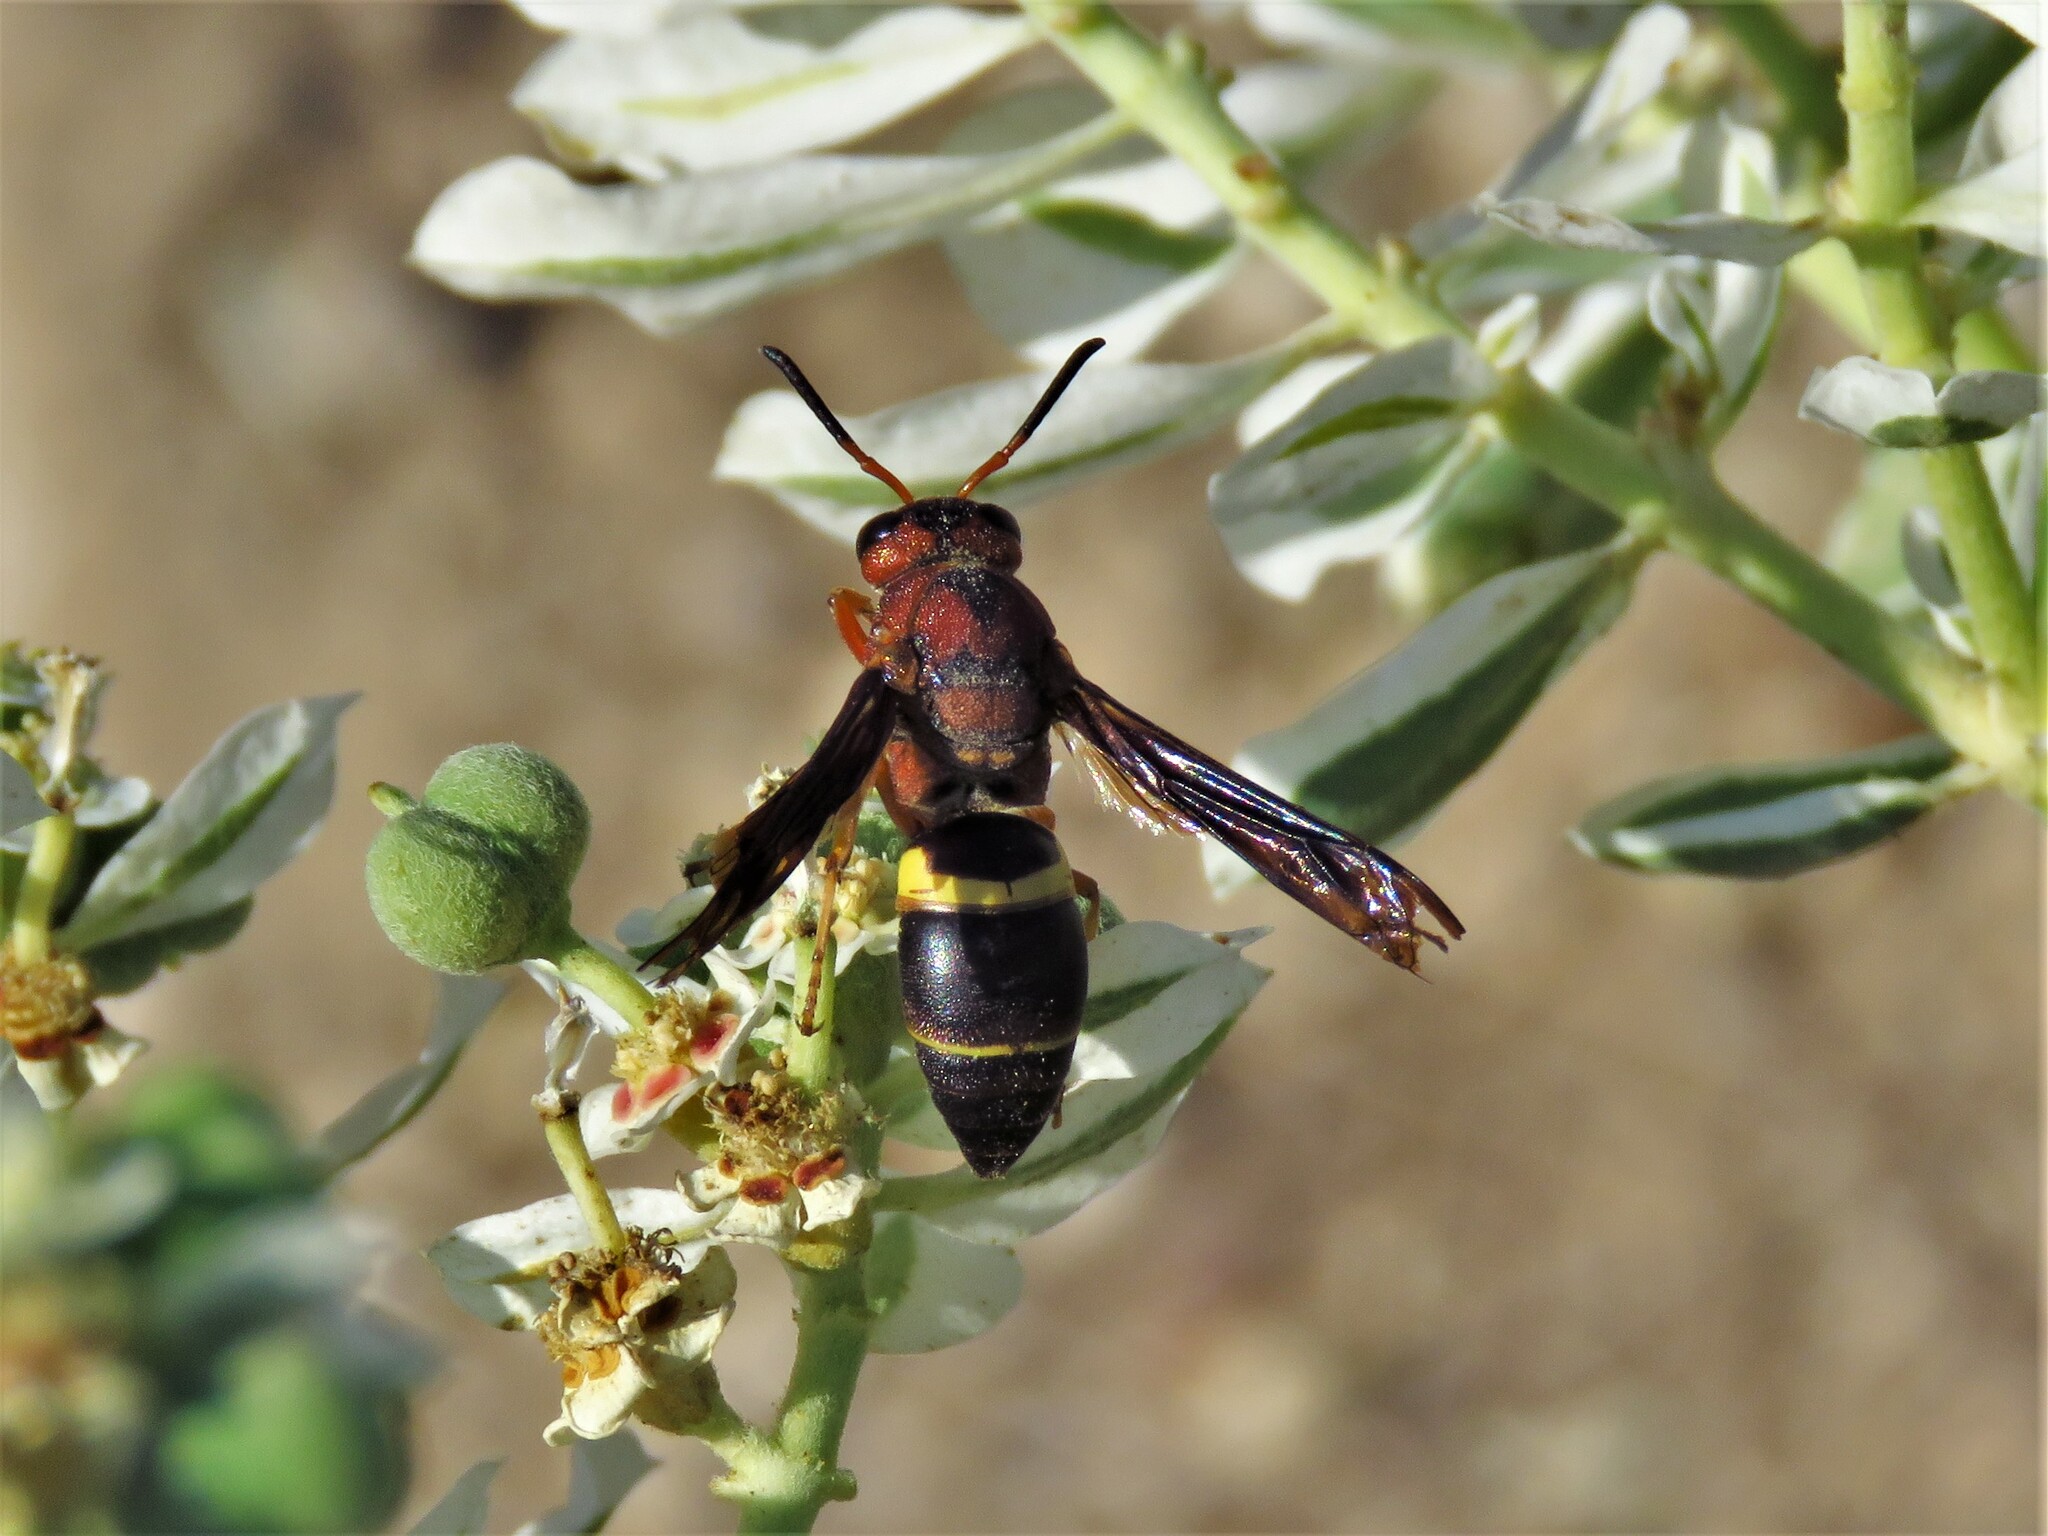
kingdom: Animalia
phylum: Arthropoda
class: Insecta
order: Hymenoptera
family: Eumenidae
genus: Euodynerus
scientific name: Euodynerus crypticus
